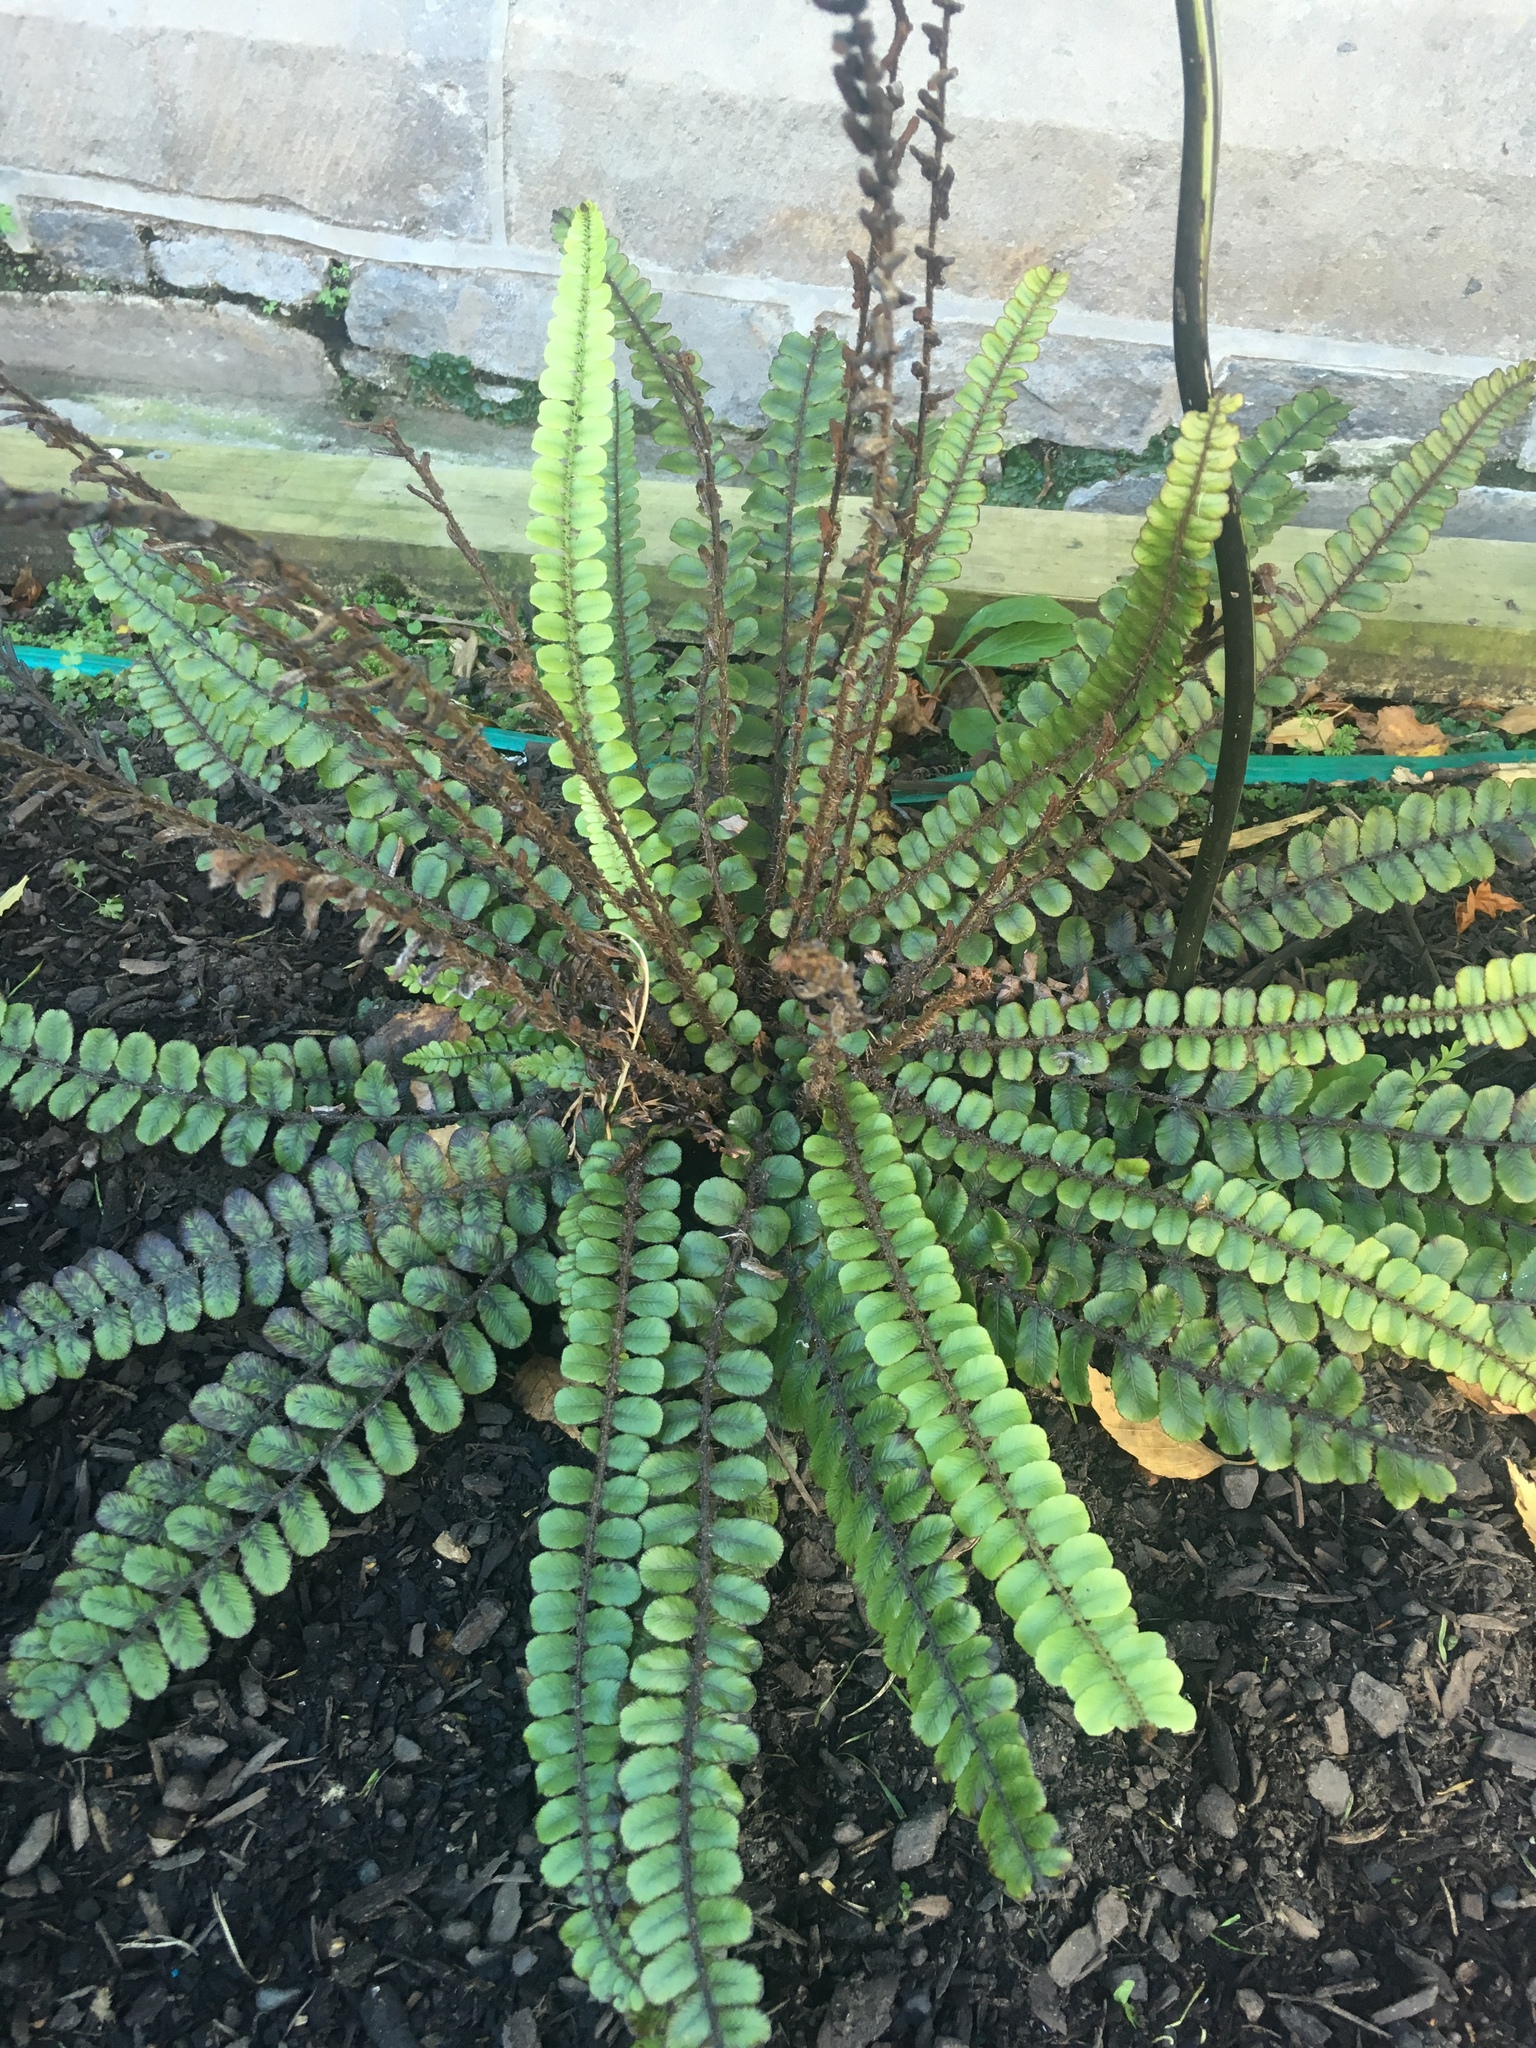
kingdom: Plantae
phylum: Tracheophyta
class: Polypodiopsida
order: Polypodiales
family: Blechnaceae
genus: Cranfillia
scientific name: Cranfillia fluviatilis
